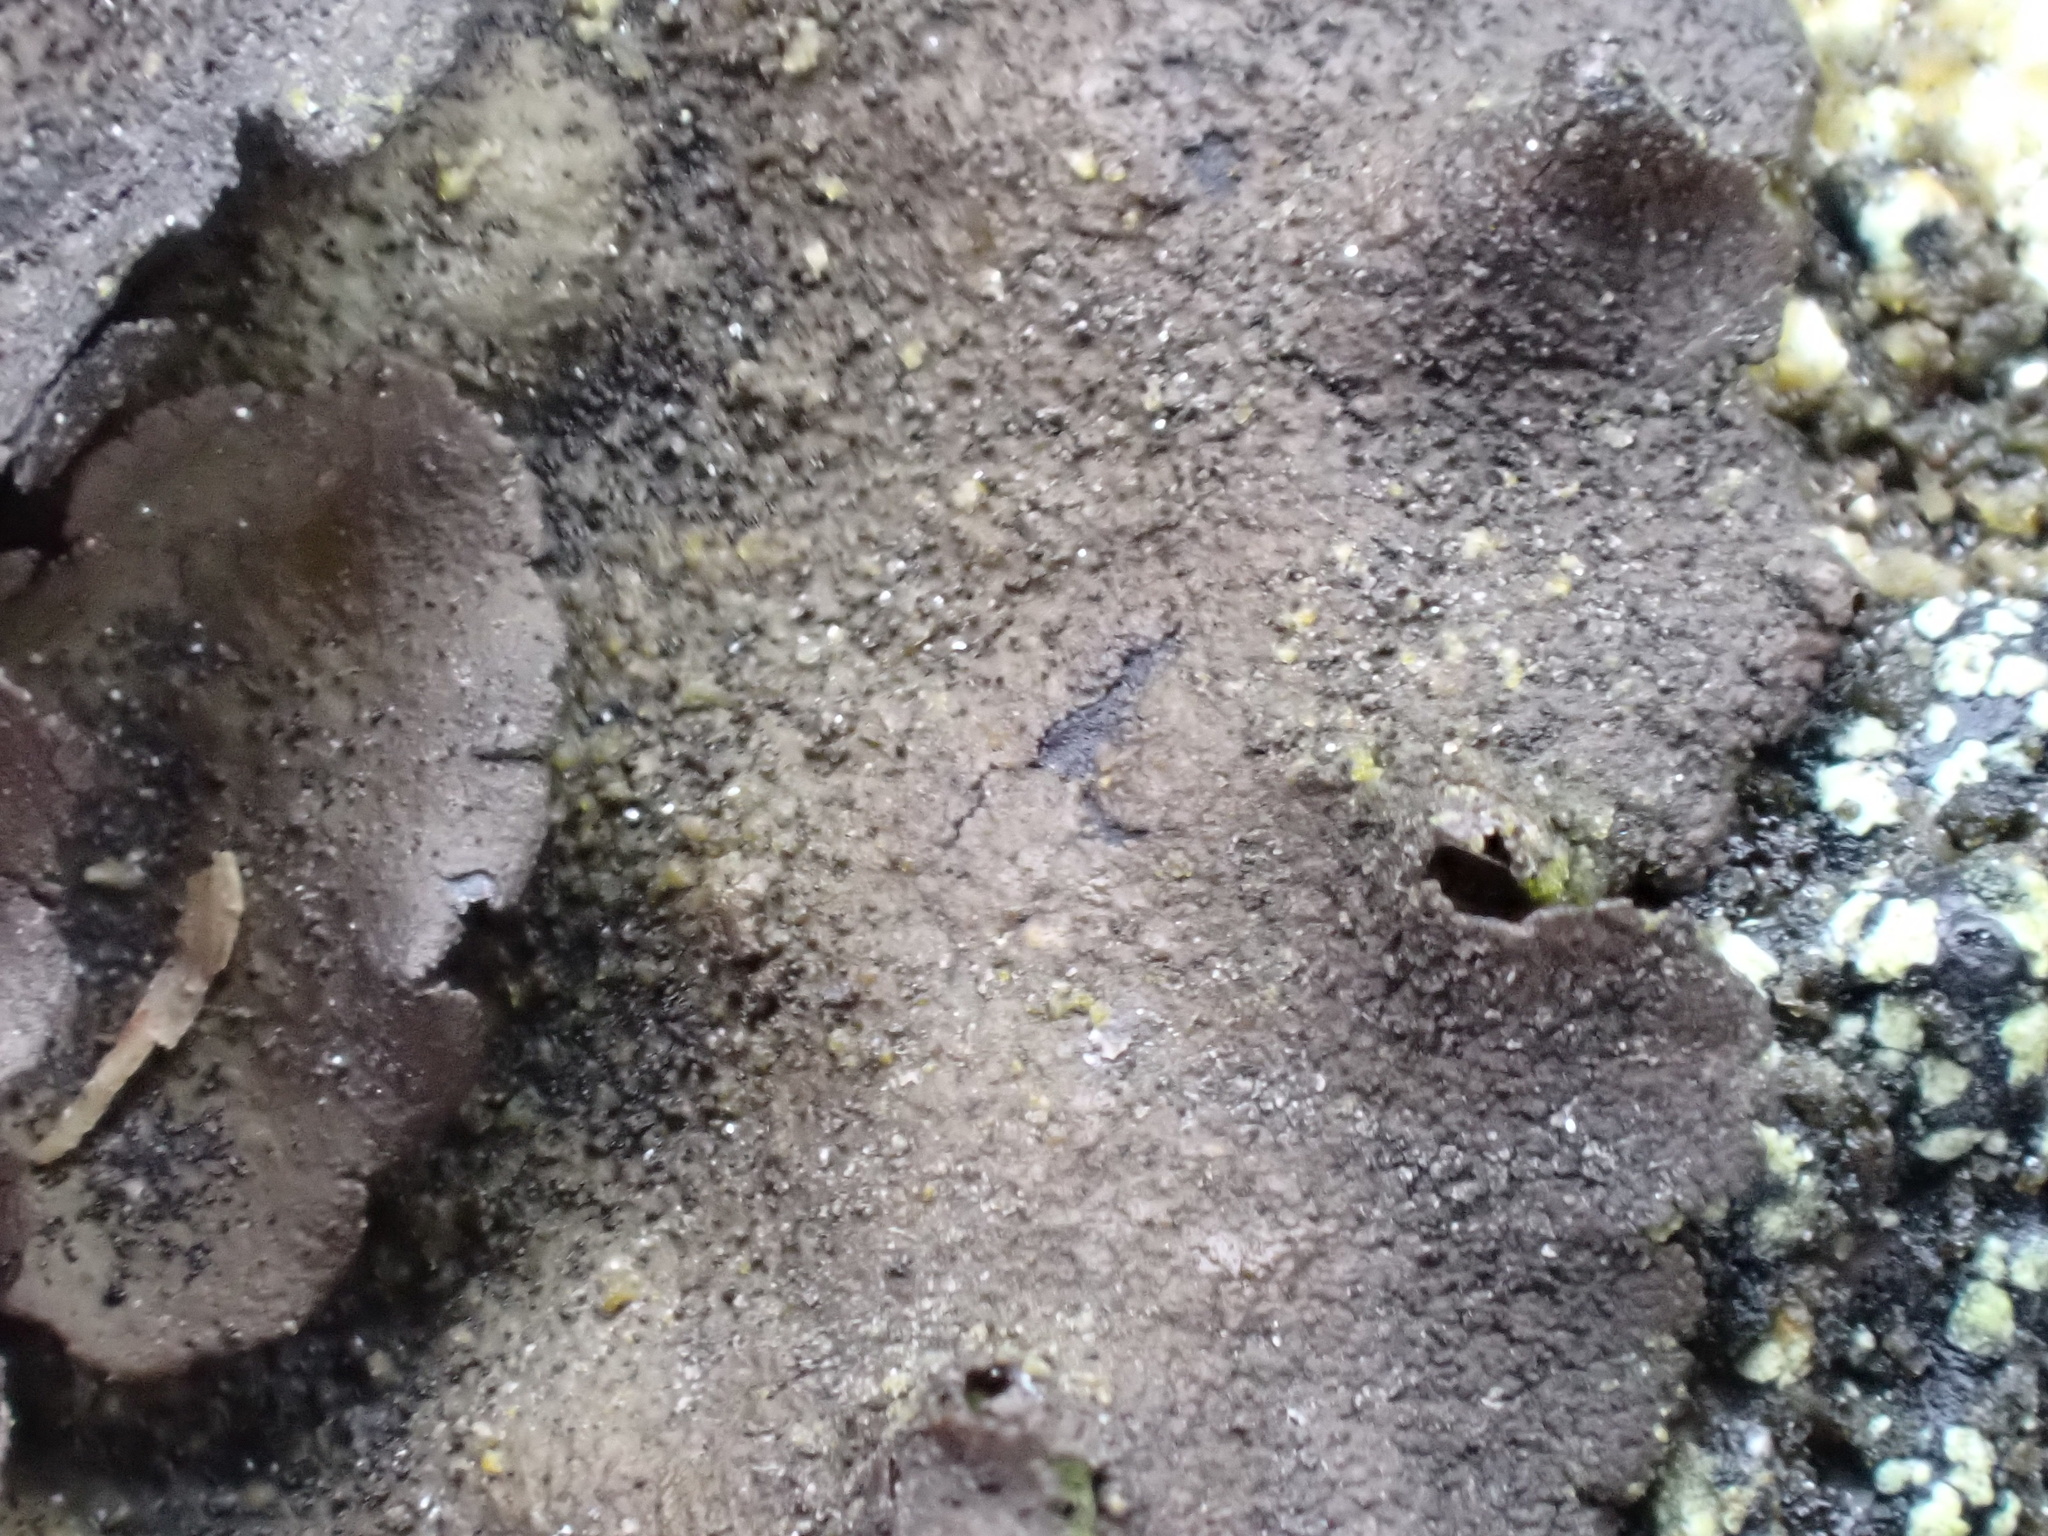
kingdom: Fungi
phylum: Ascomycota
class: Lecanoromycetes
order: Umbilicariales
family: Umbilicariaceae
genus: Umbilicaria
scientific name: Umbilicaria deusta
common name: Peppered rock tripe
